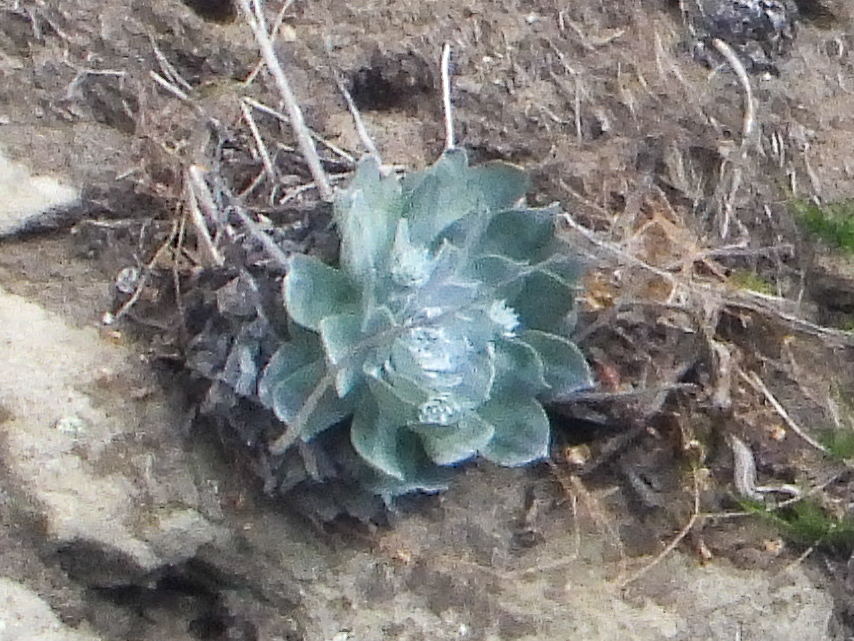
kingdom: Plantae
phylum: Tracheophyta
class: Magnoliopsida
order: Saxifragales
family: Crassulaceae
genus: Dudleya
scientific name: Dudleya pulverulenta
